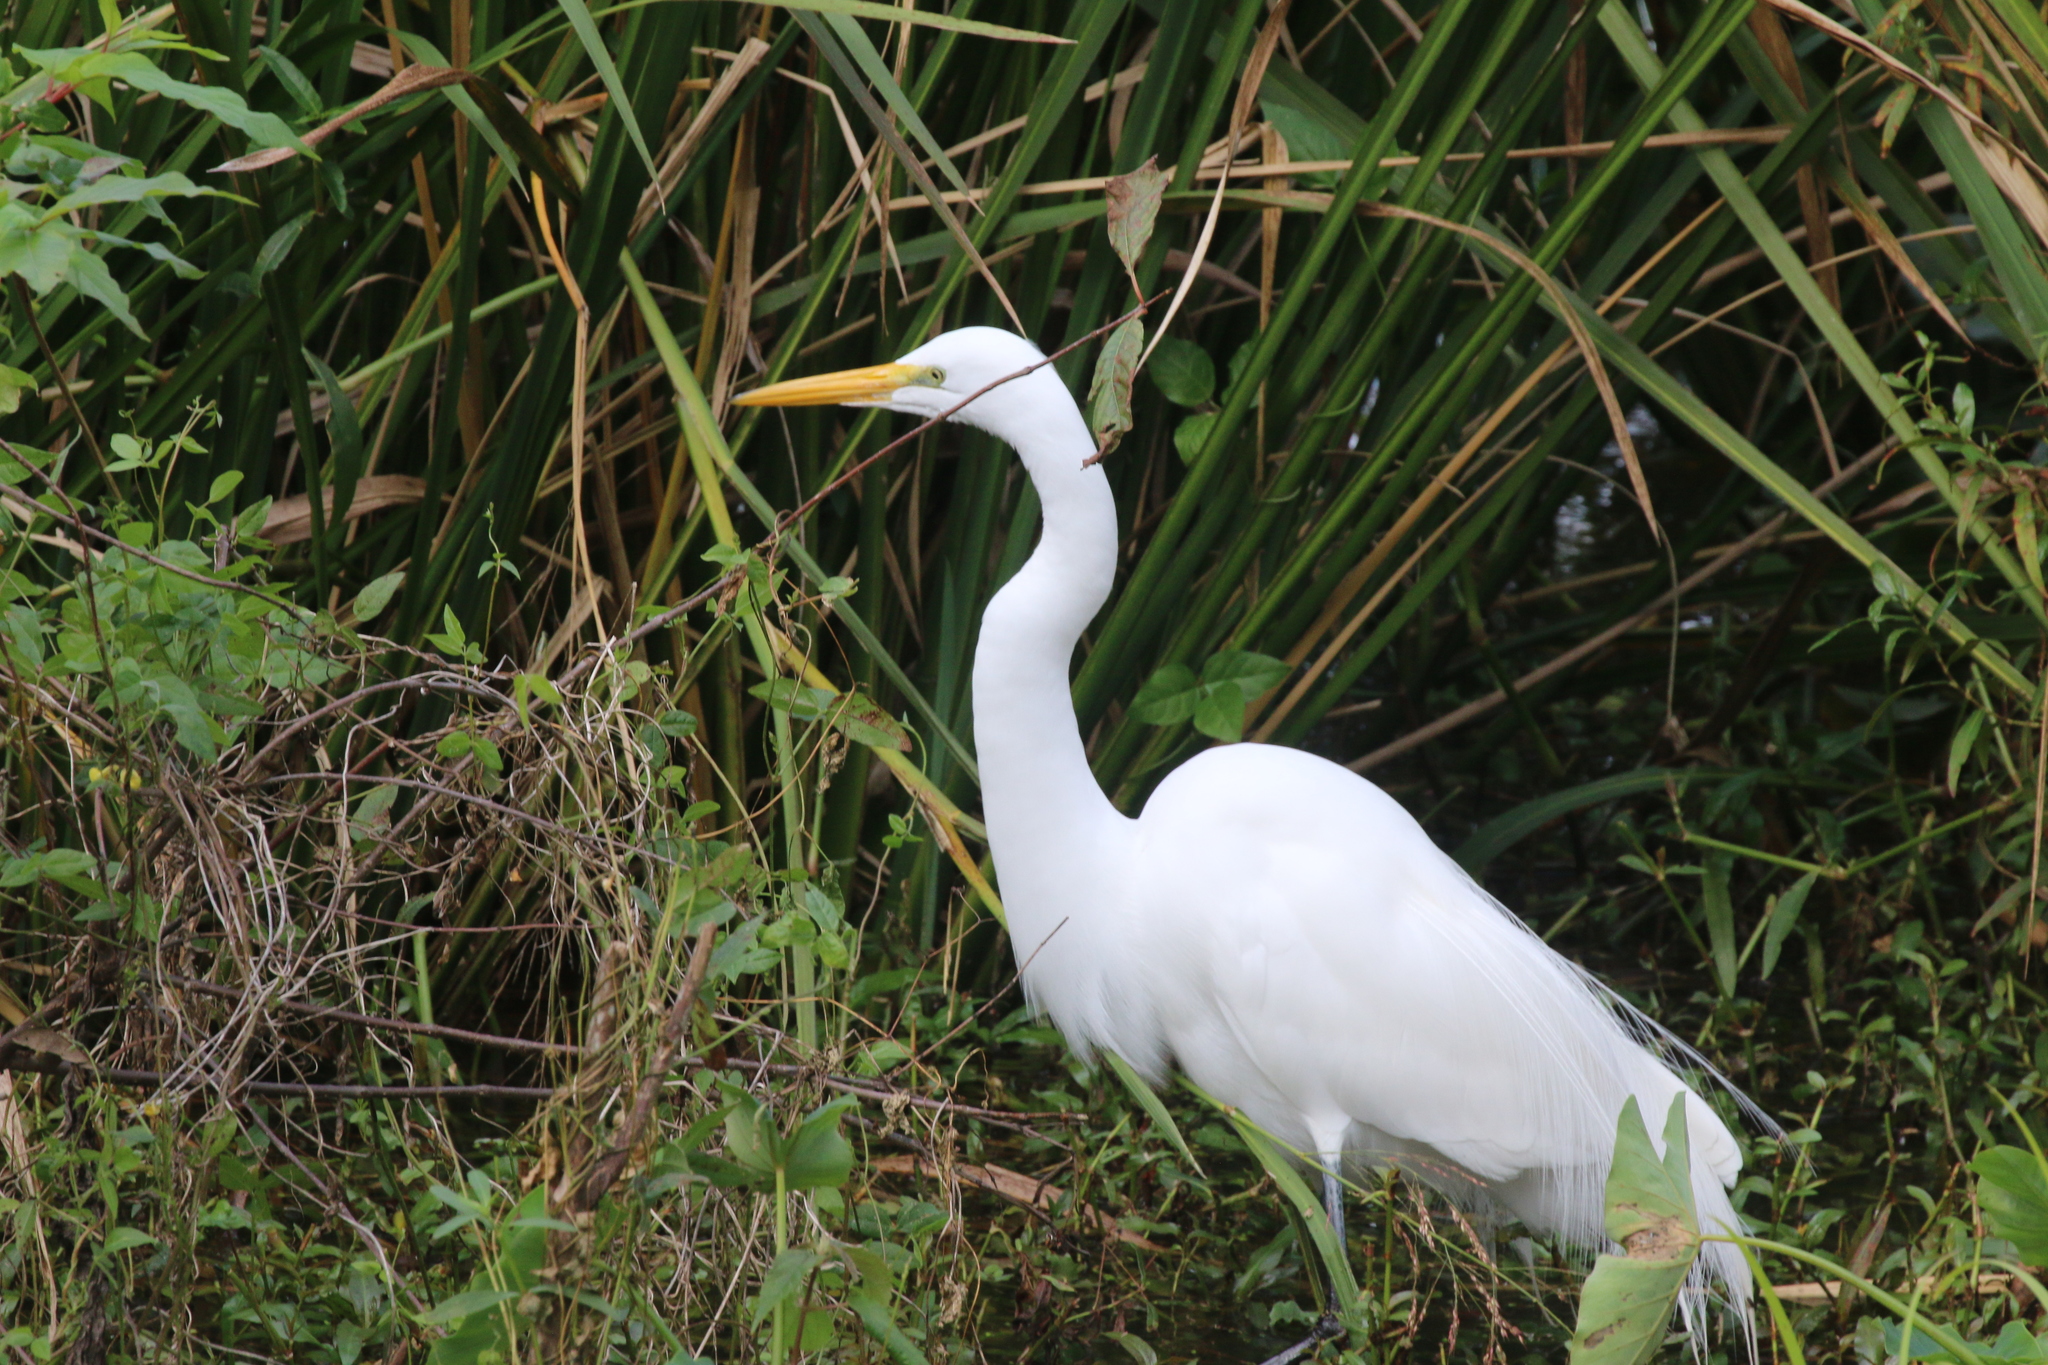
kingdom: Animalia
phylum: Chordata
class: Aves
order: Pelecaniformes
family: Ardeidae
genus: Ardea
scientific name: Ardea alba
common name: Great egret
